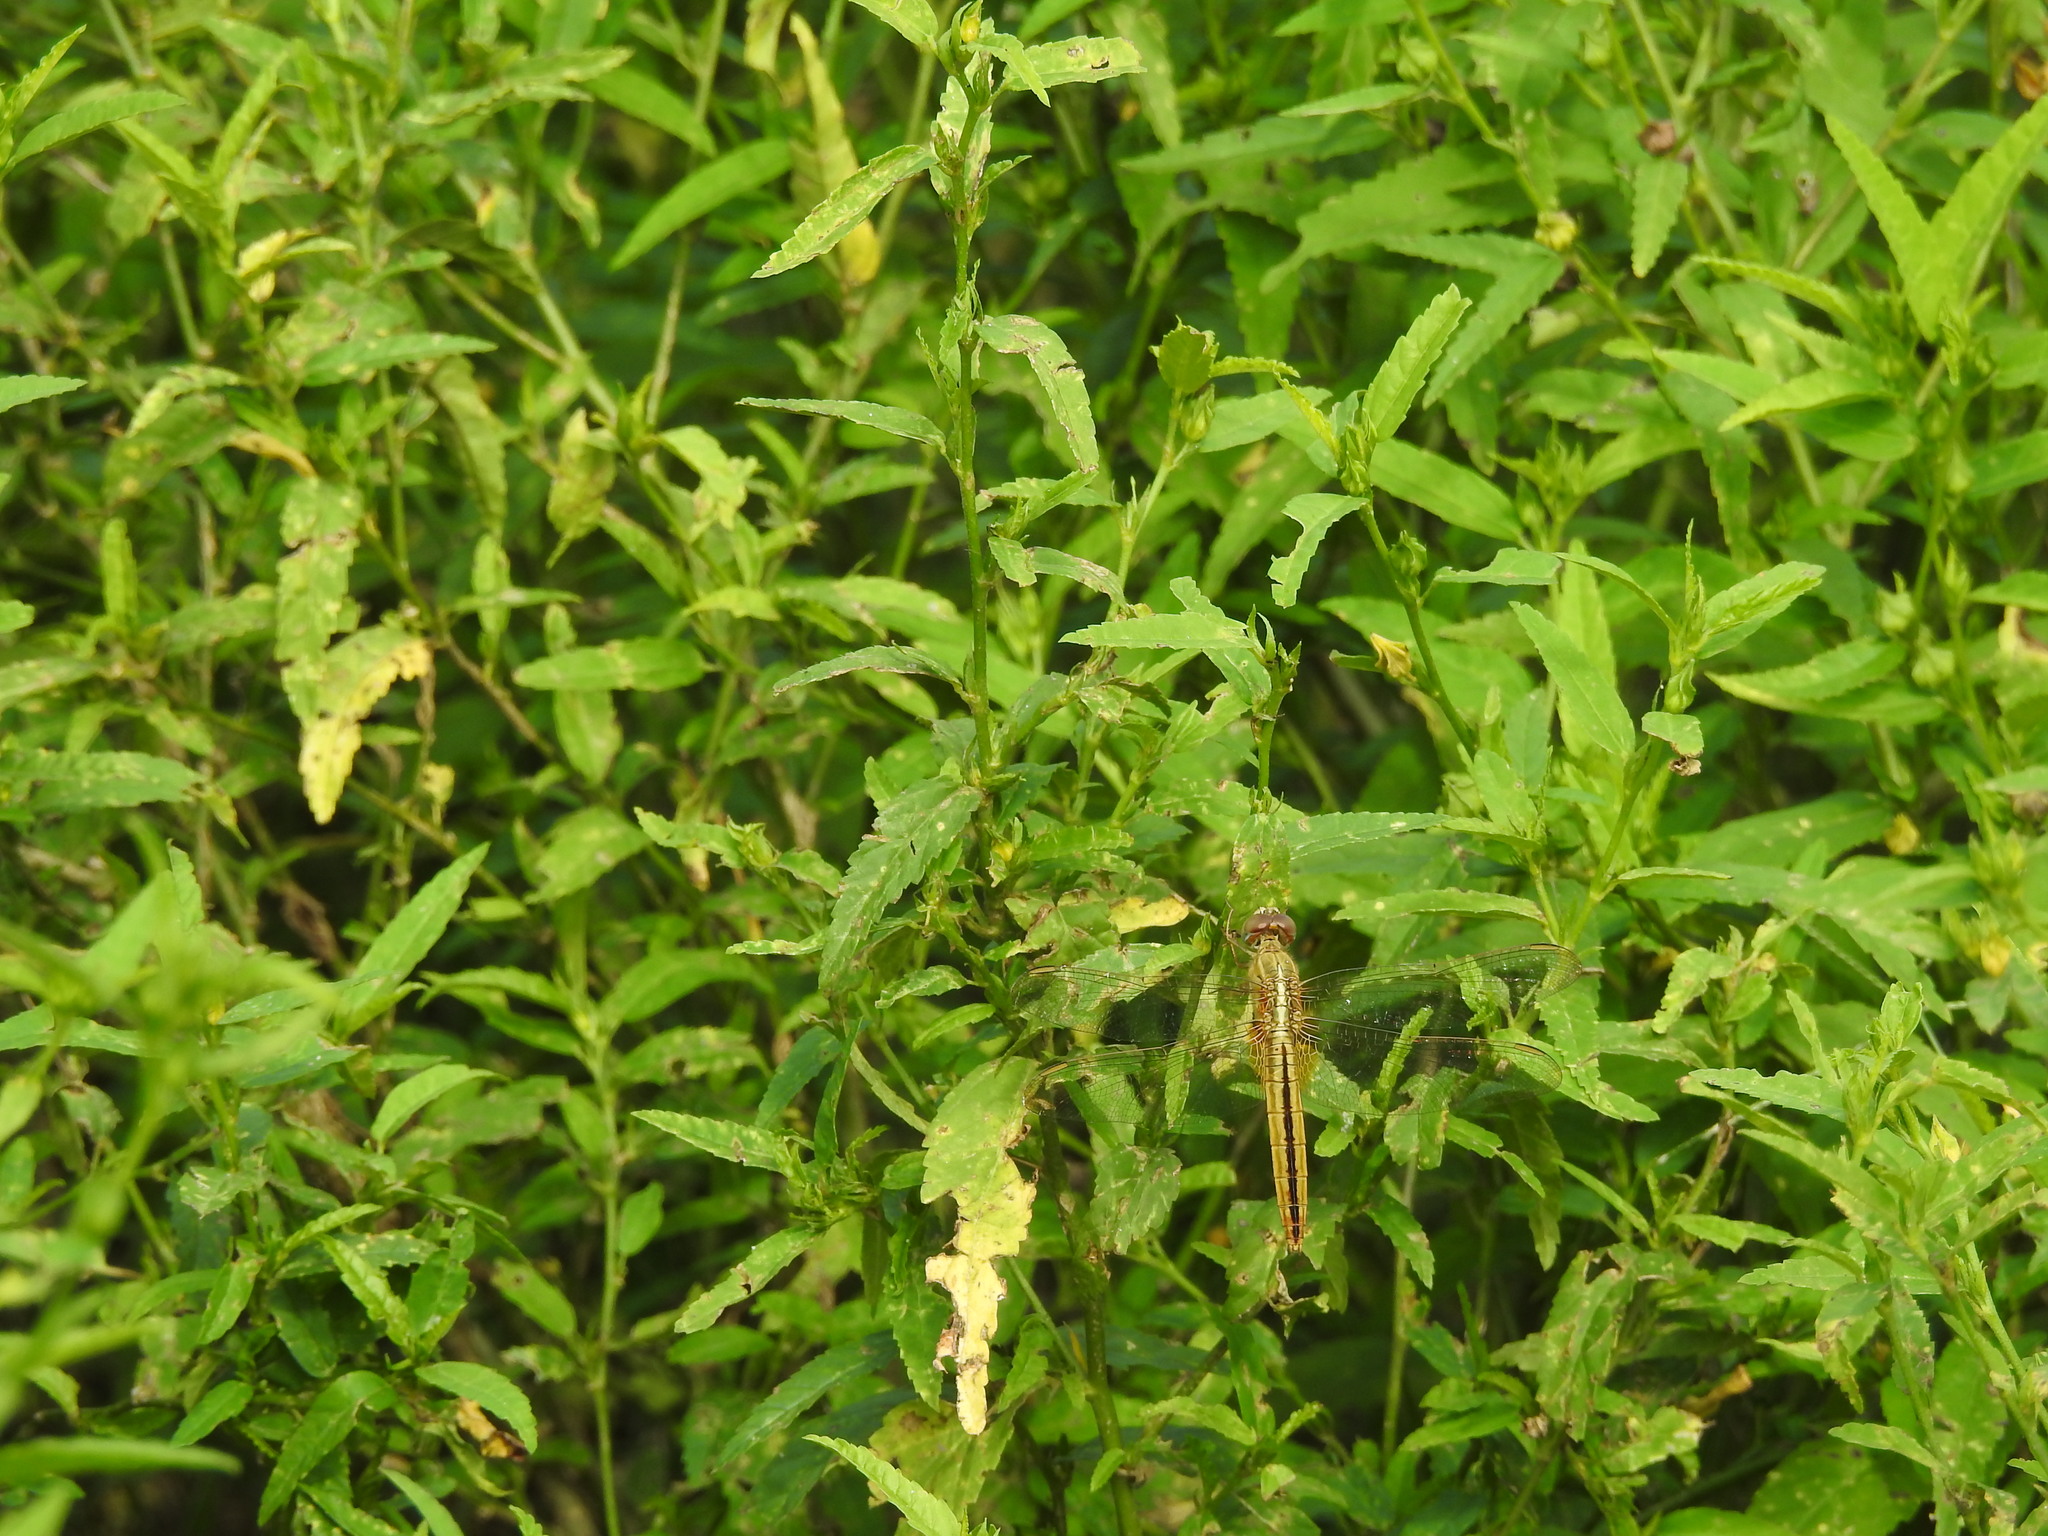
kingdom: Animalia
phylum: Arthropoda
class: Insecta
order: Odonata
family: Libellulidae
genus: Crocothemis
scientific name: Crocothemis servilia
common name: Scarlet skimmer
